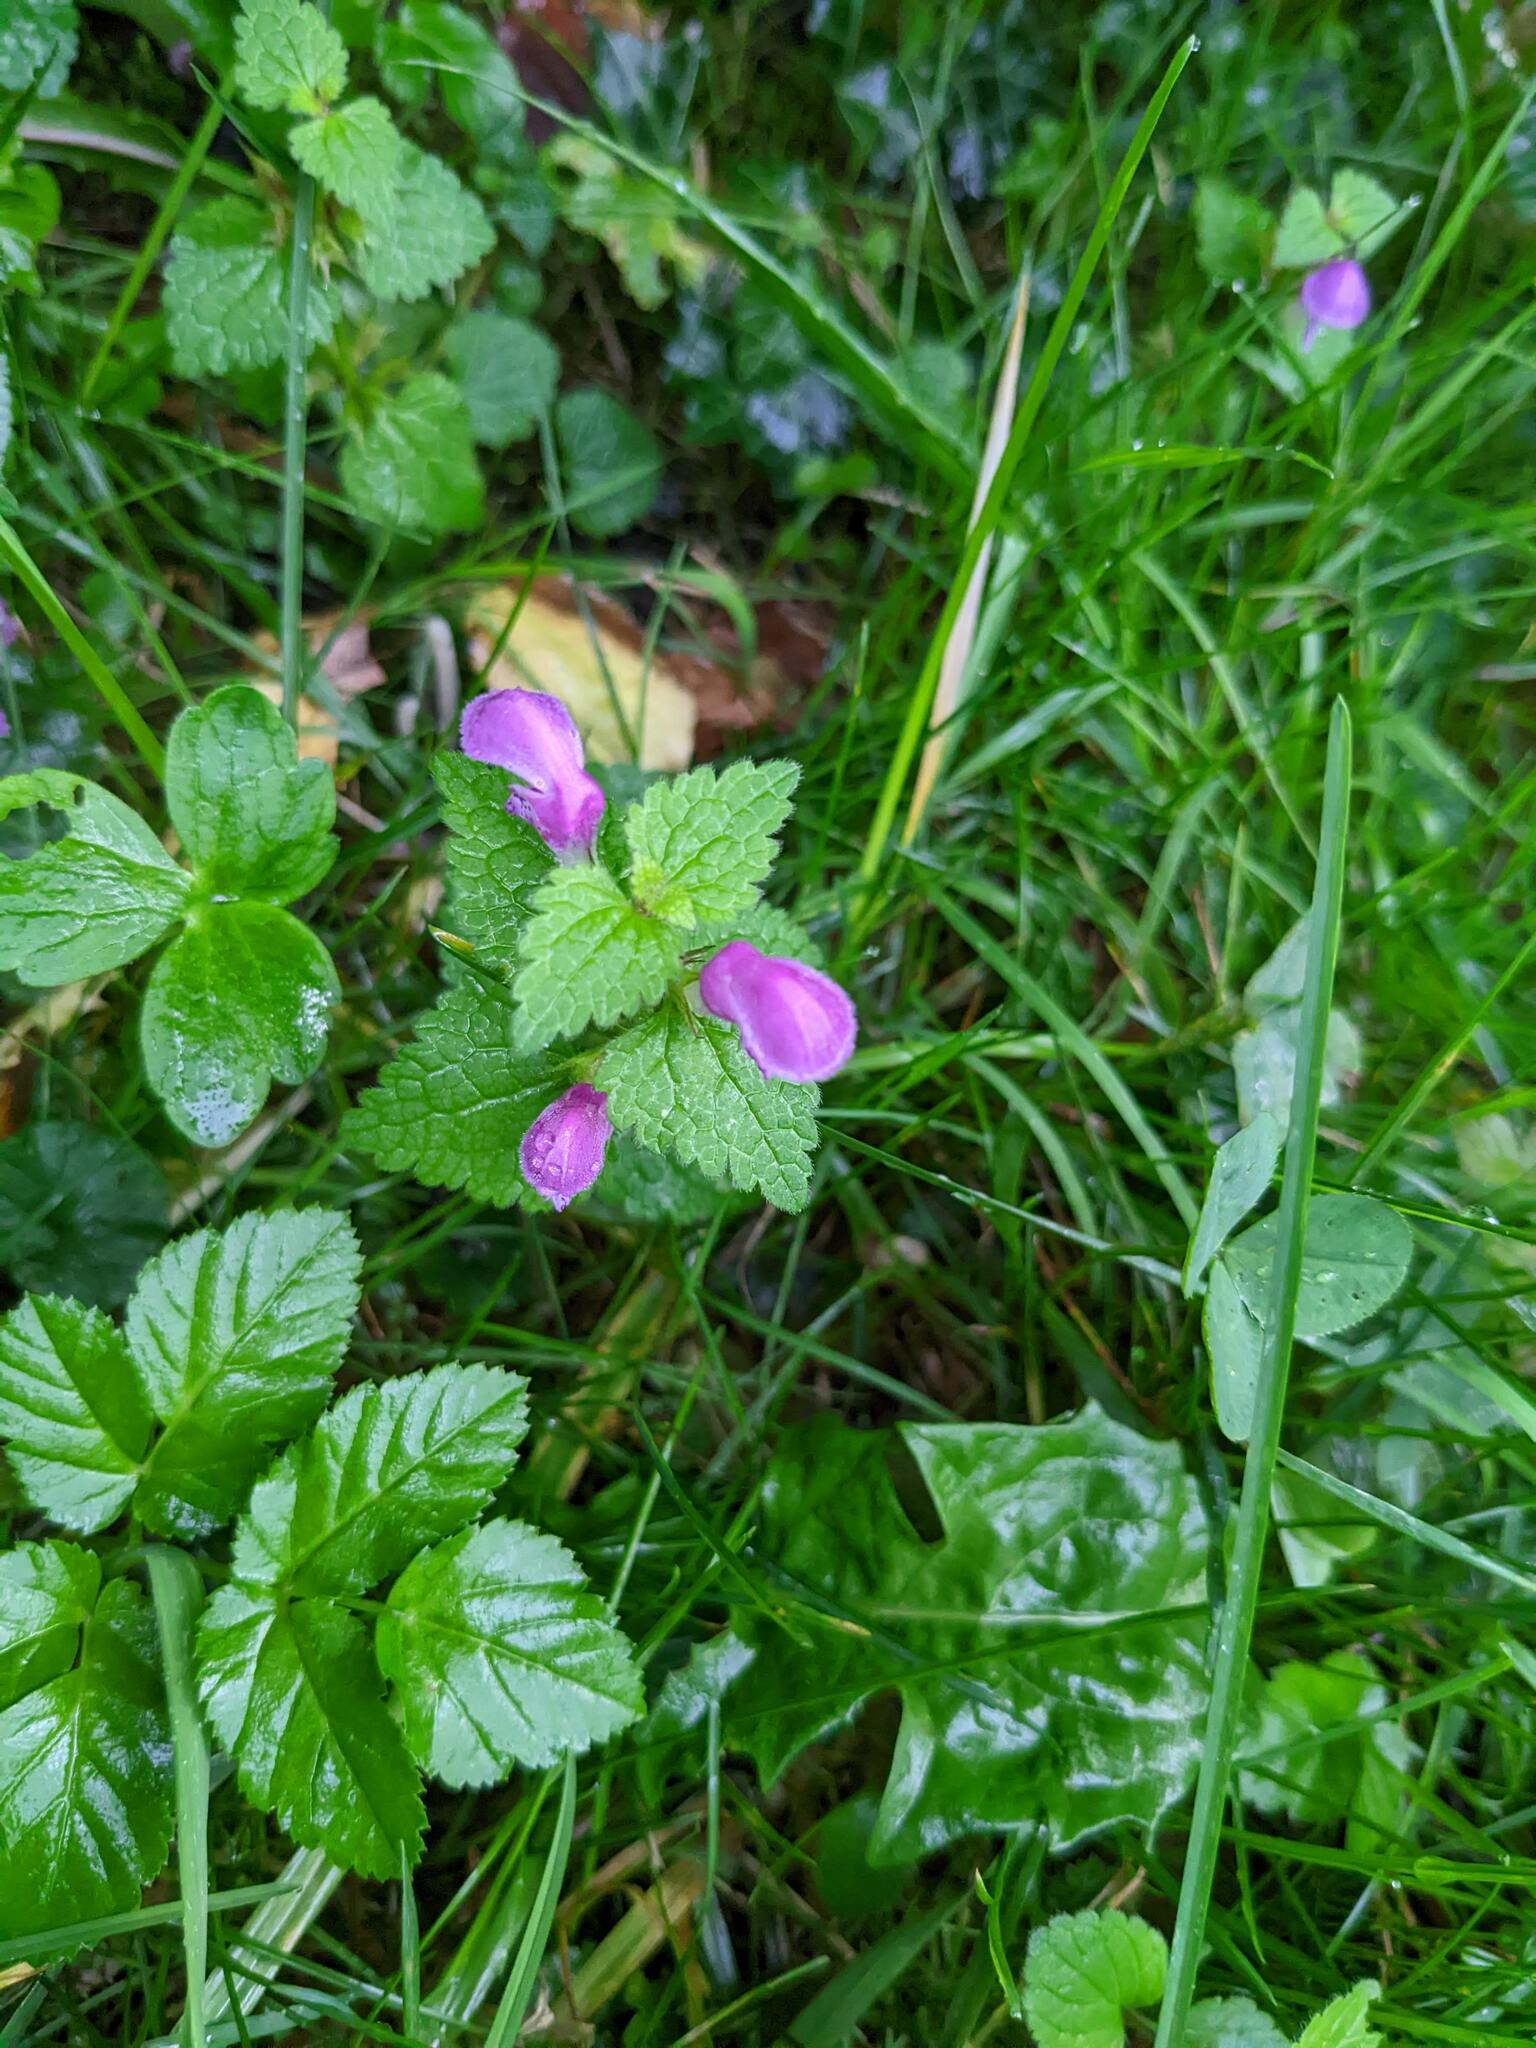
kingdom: Plantae
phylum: Tracheophyta
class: Magnoliopsida
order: Lamiales
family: Lamiaceae
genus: Lamium
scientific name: Lamium maculatum
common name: Spotted dead-nettle
